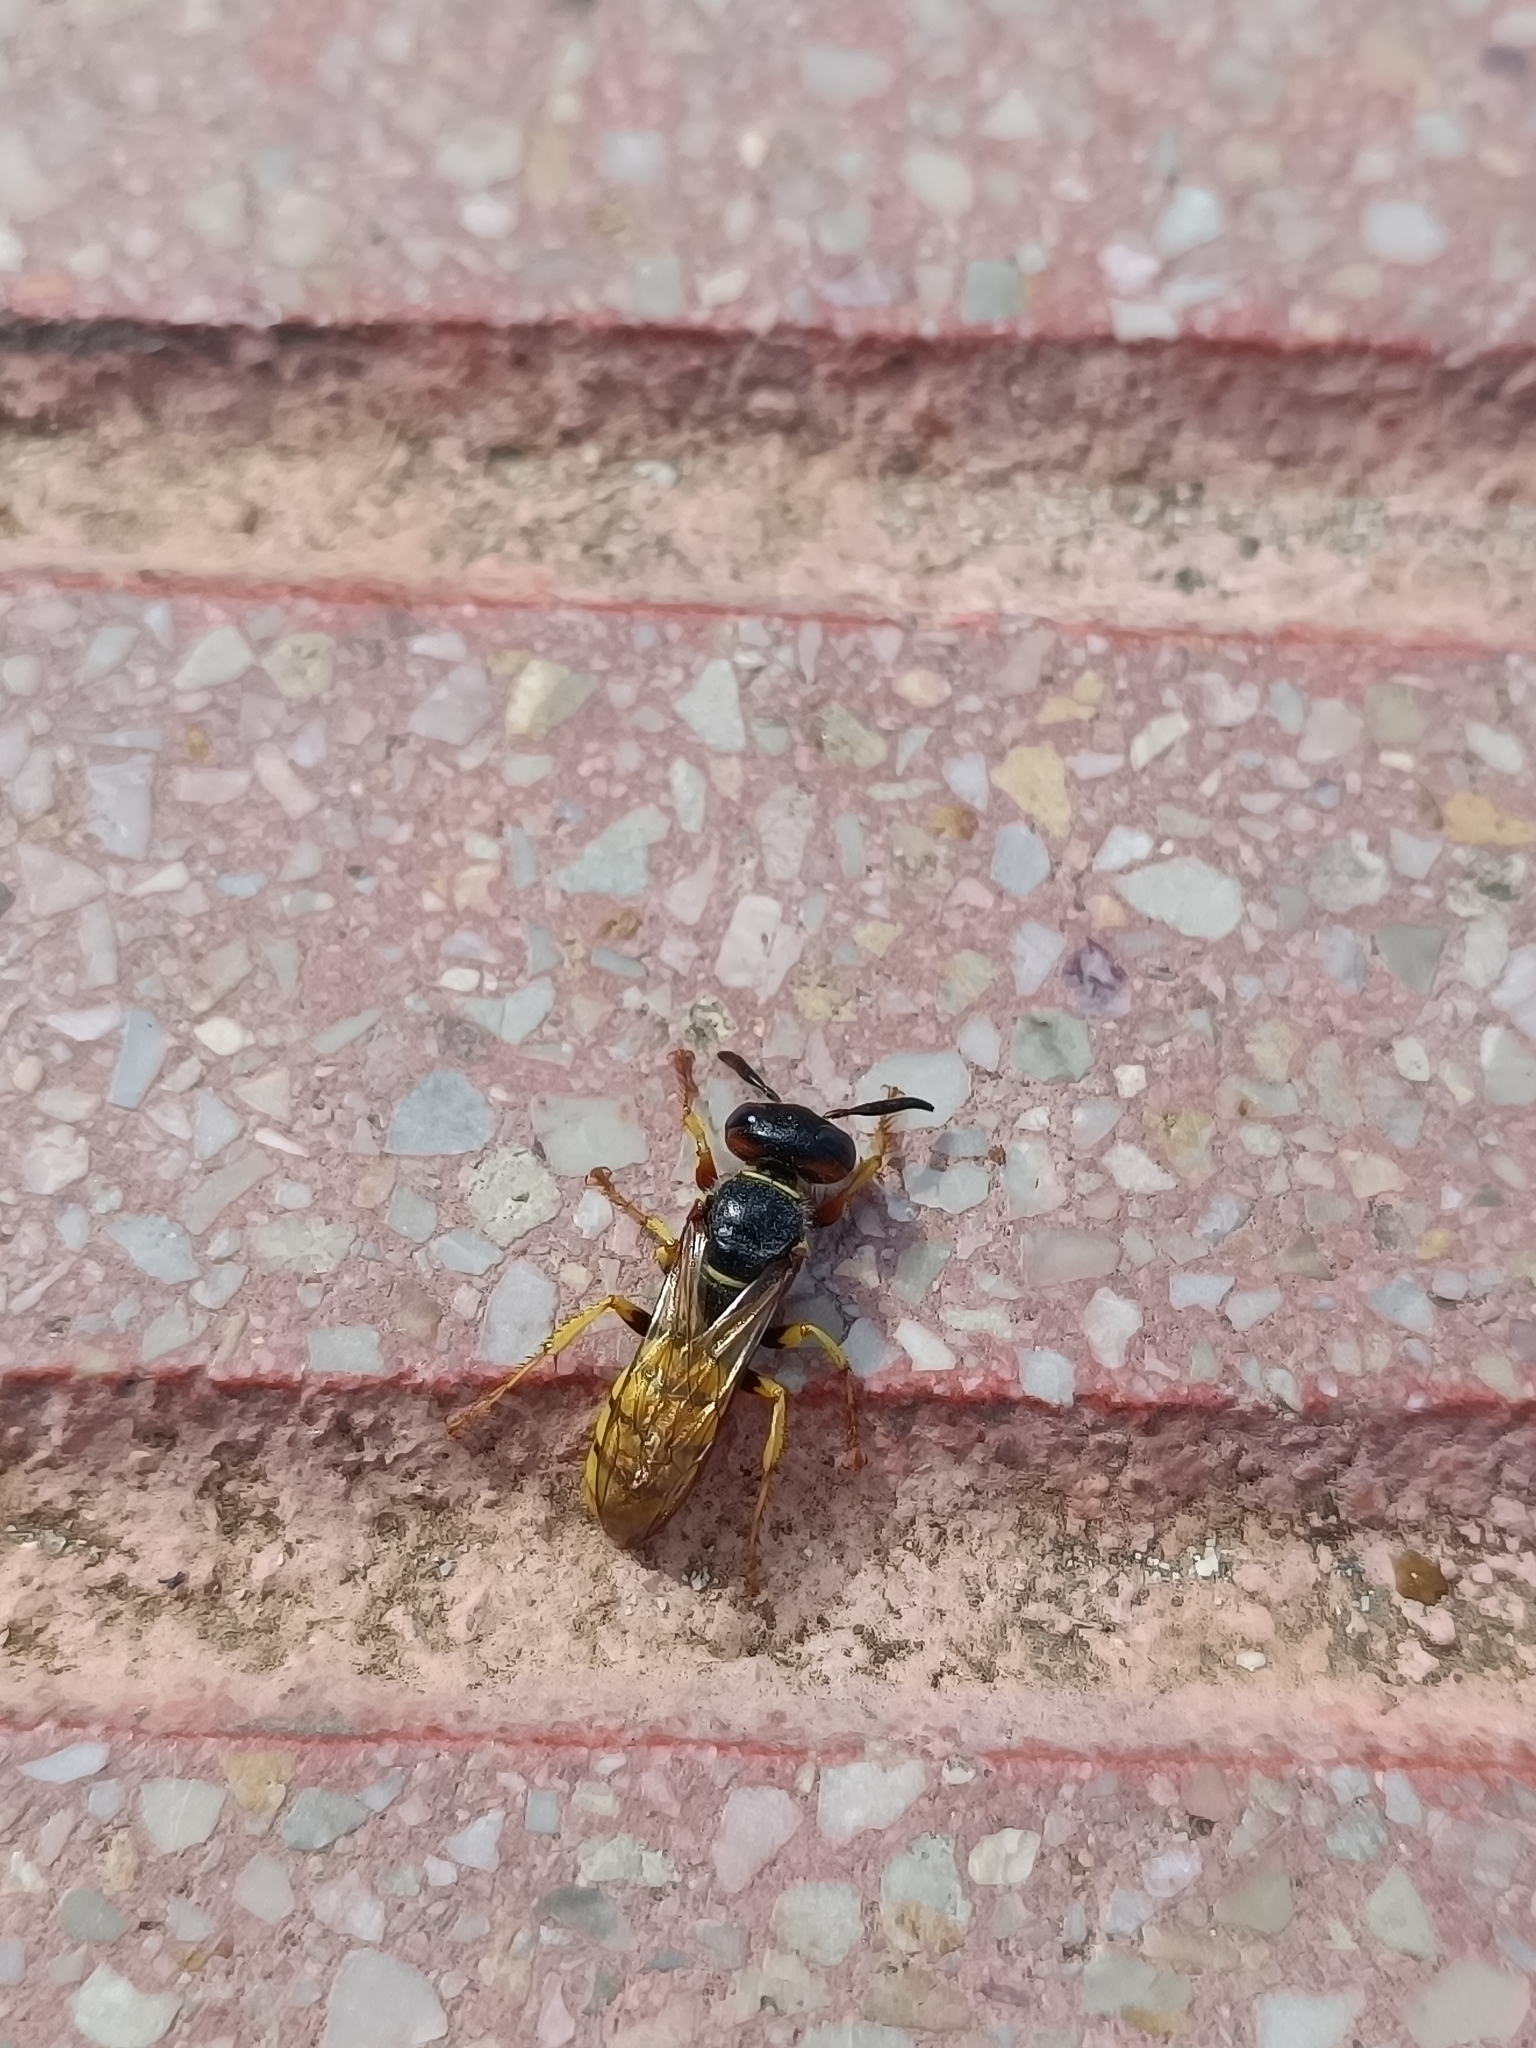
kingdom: Animalia
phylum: Arthropoda
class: Insecta
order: Hymenoptera
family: Crabronidae
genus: Philanthus
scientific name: Philanthus triangulum
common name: Bee wolf
